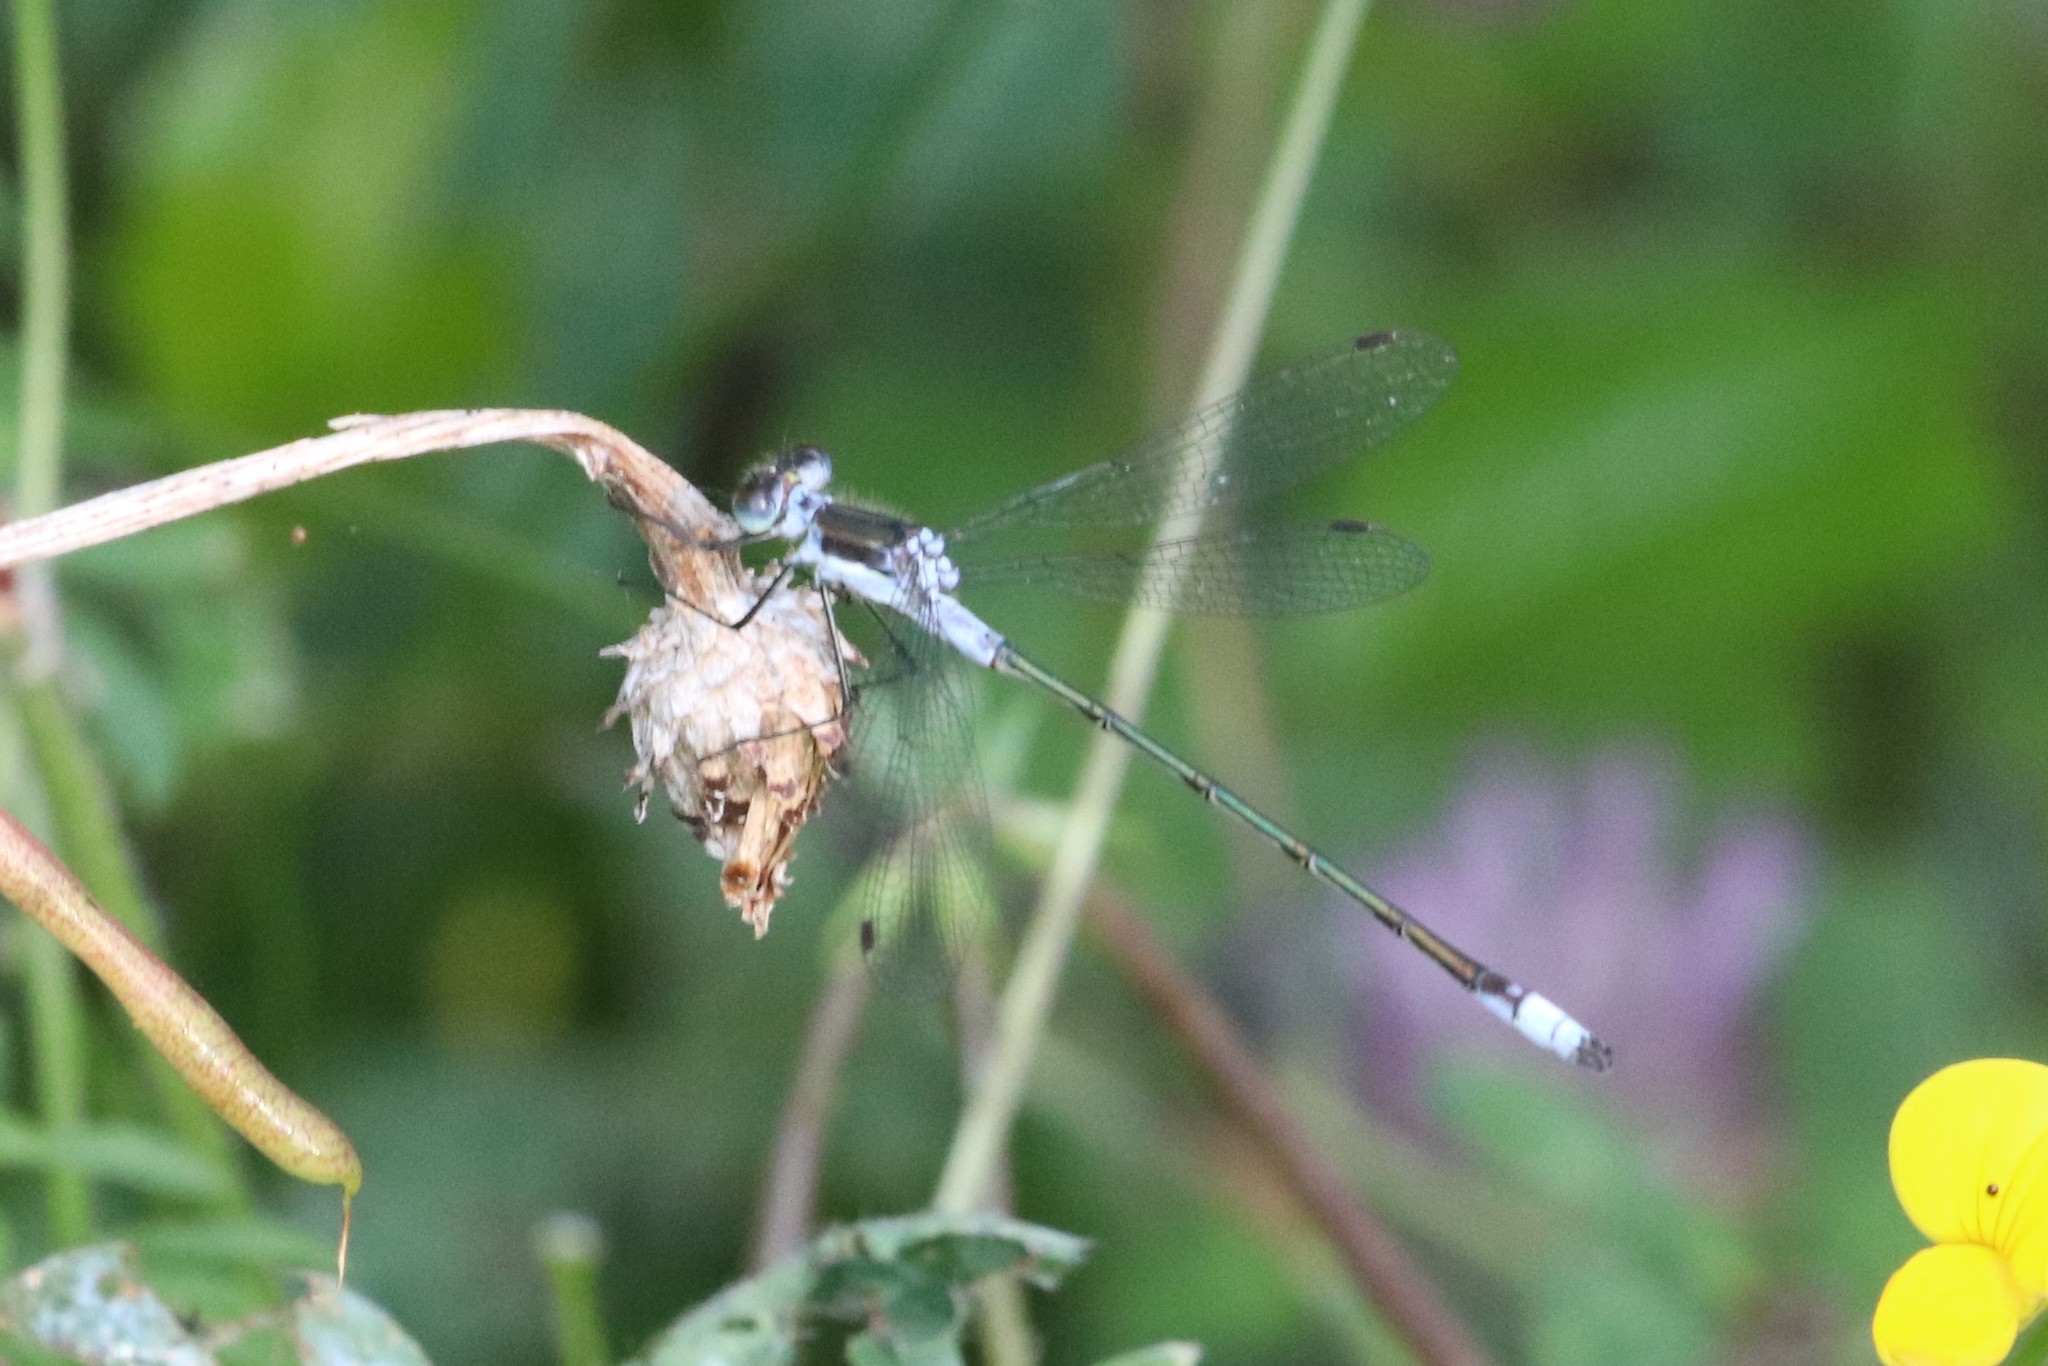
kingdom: Animalia
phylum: Arthropoda
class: Insecta
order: Odonata
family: Lestidae
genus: Lestes
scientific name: Lestes disjunctus
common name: Northern spreadwing
